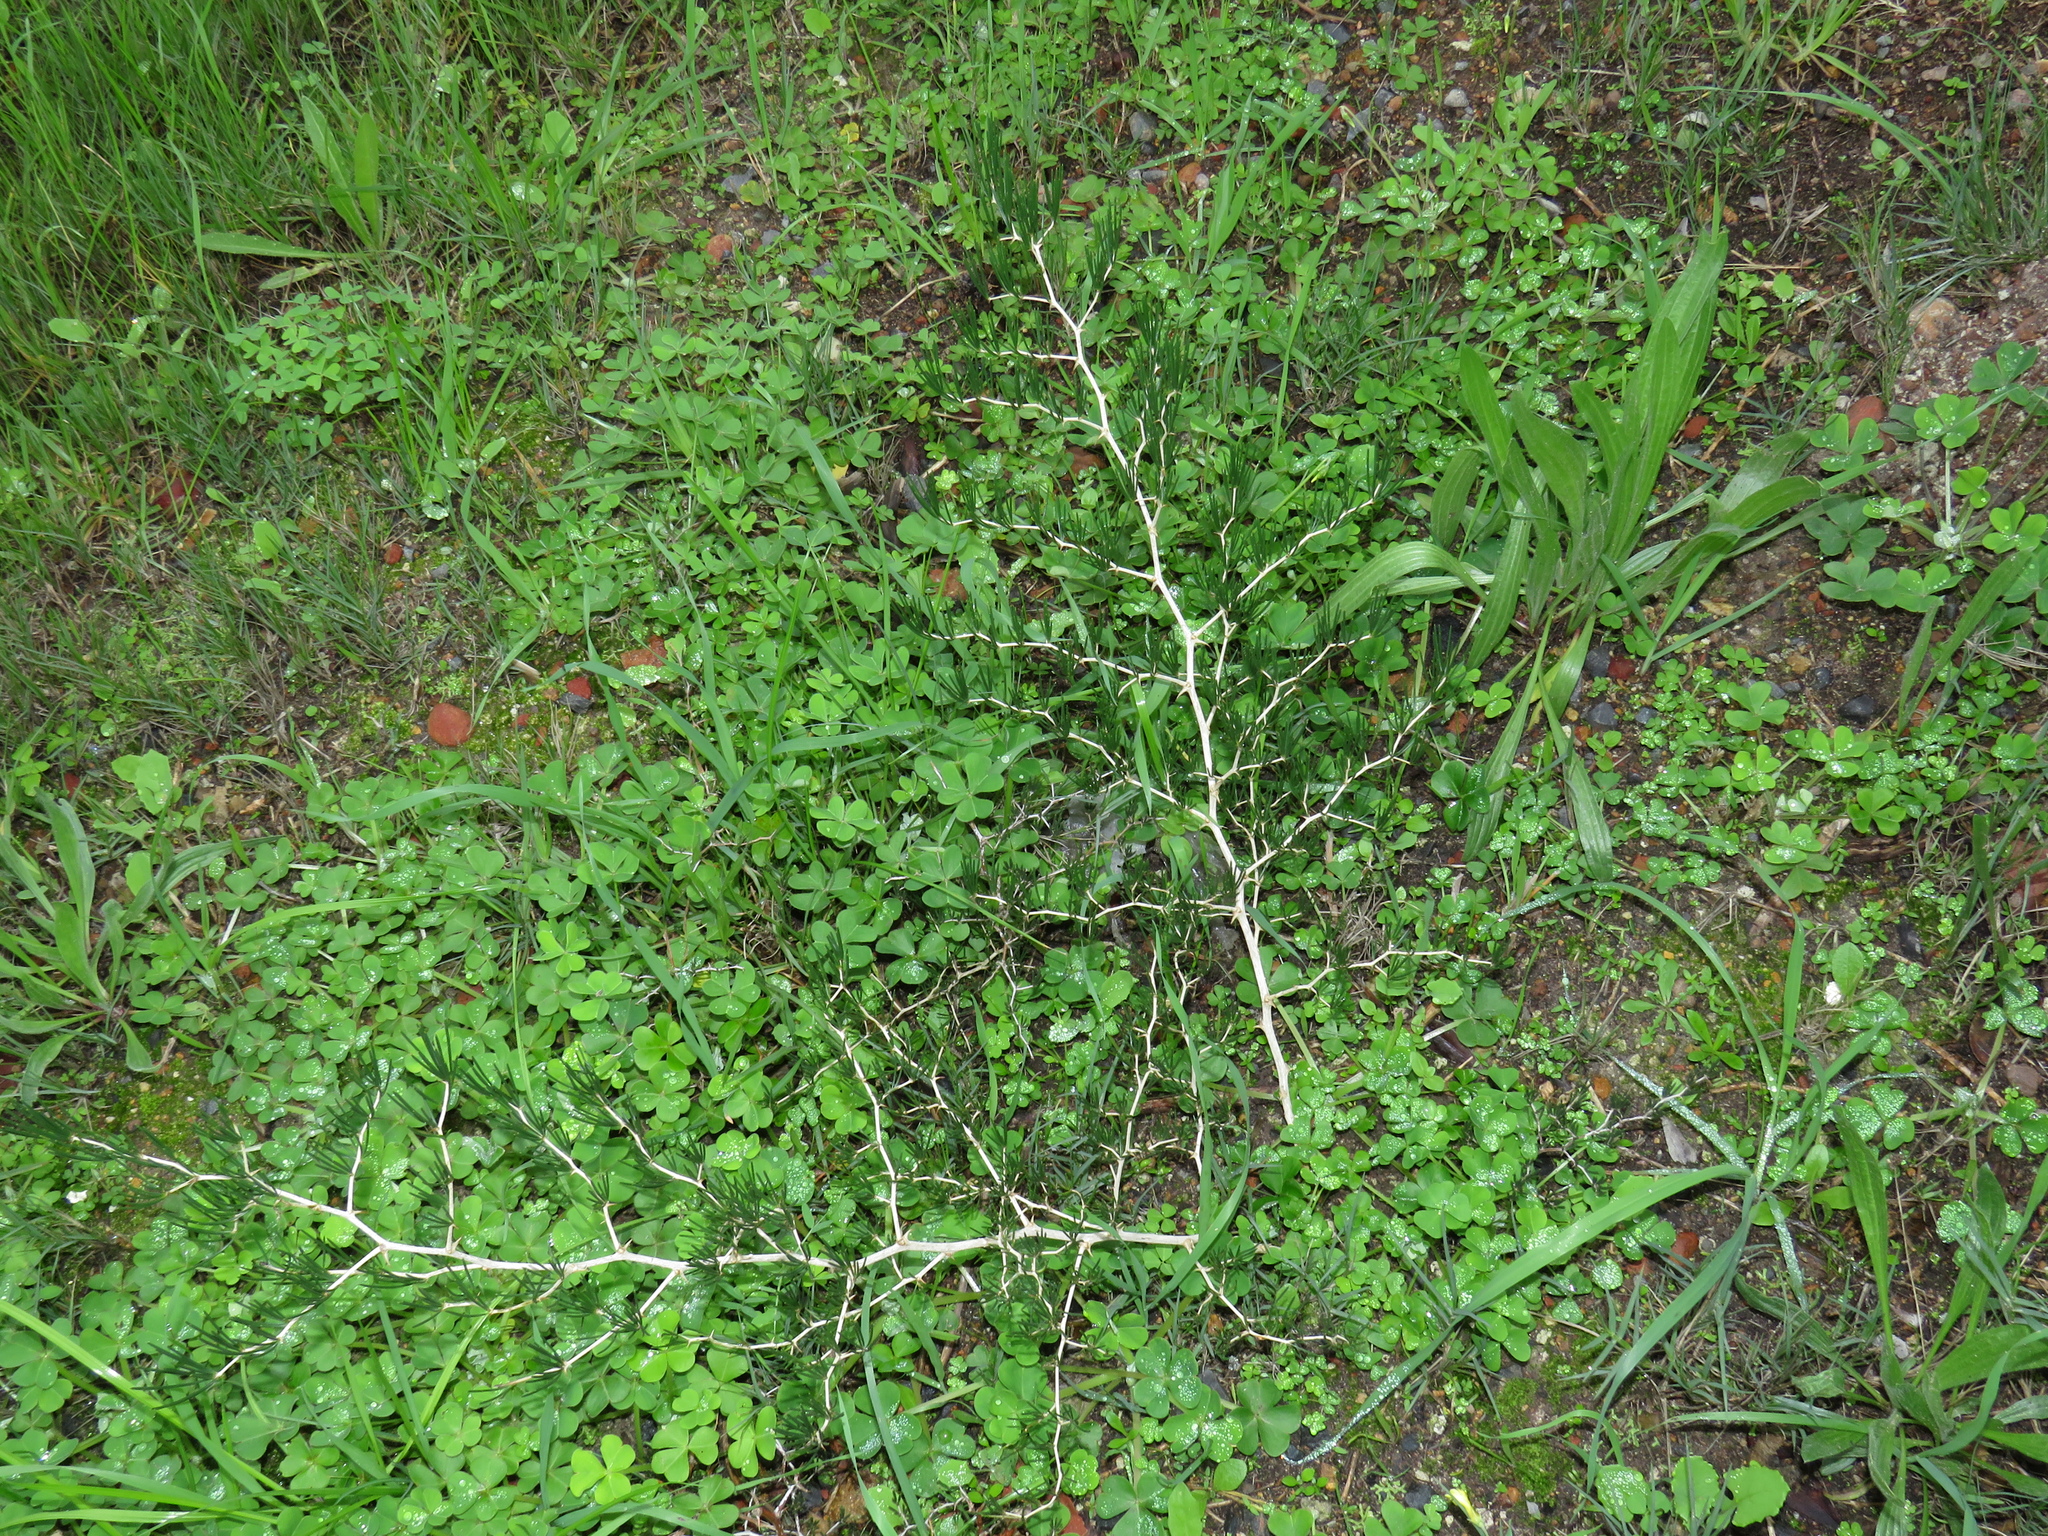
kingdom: Plantae
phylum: Tracheophyta
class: Liliopsida
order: Asparagales
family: Asparagaceae
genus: Asparagus
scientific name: Asparagus lignosus
